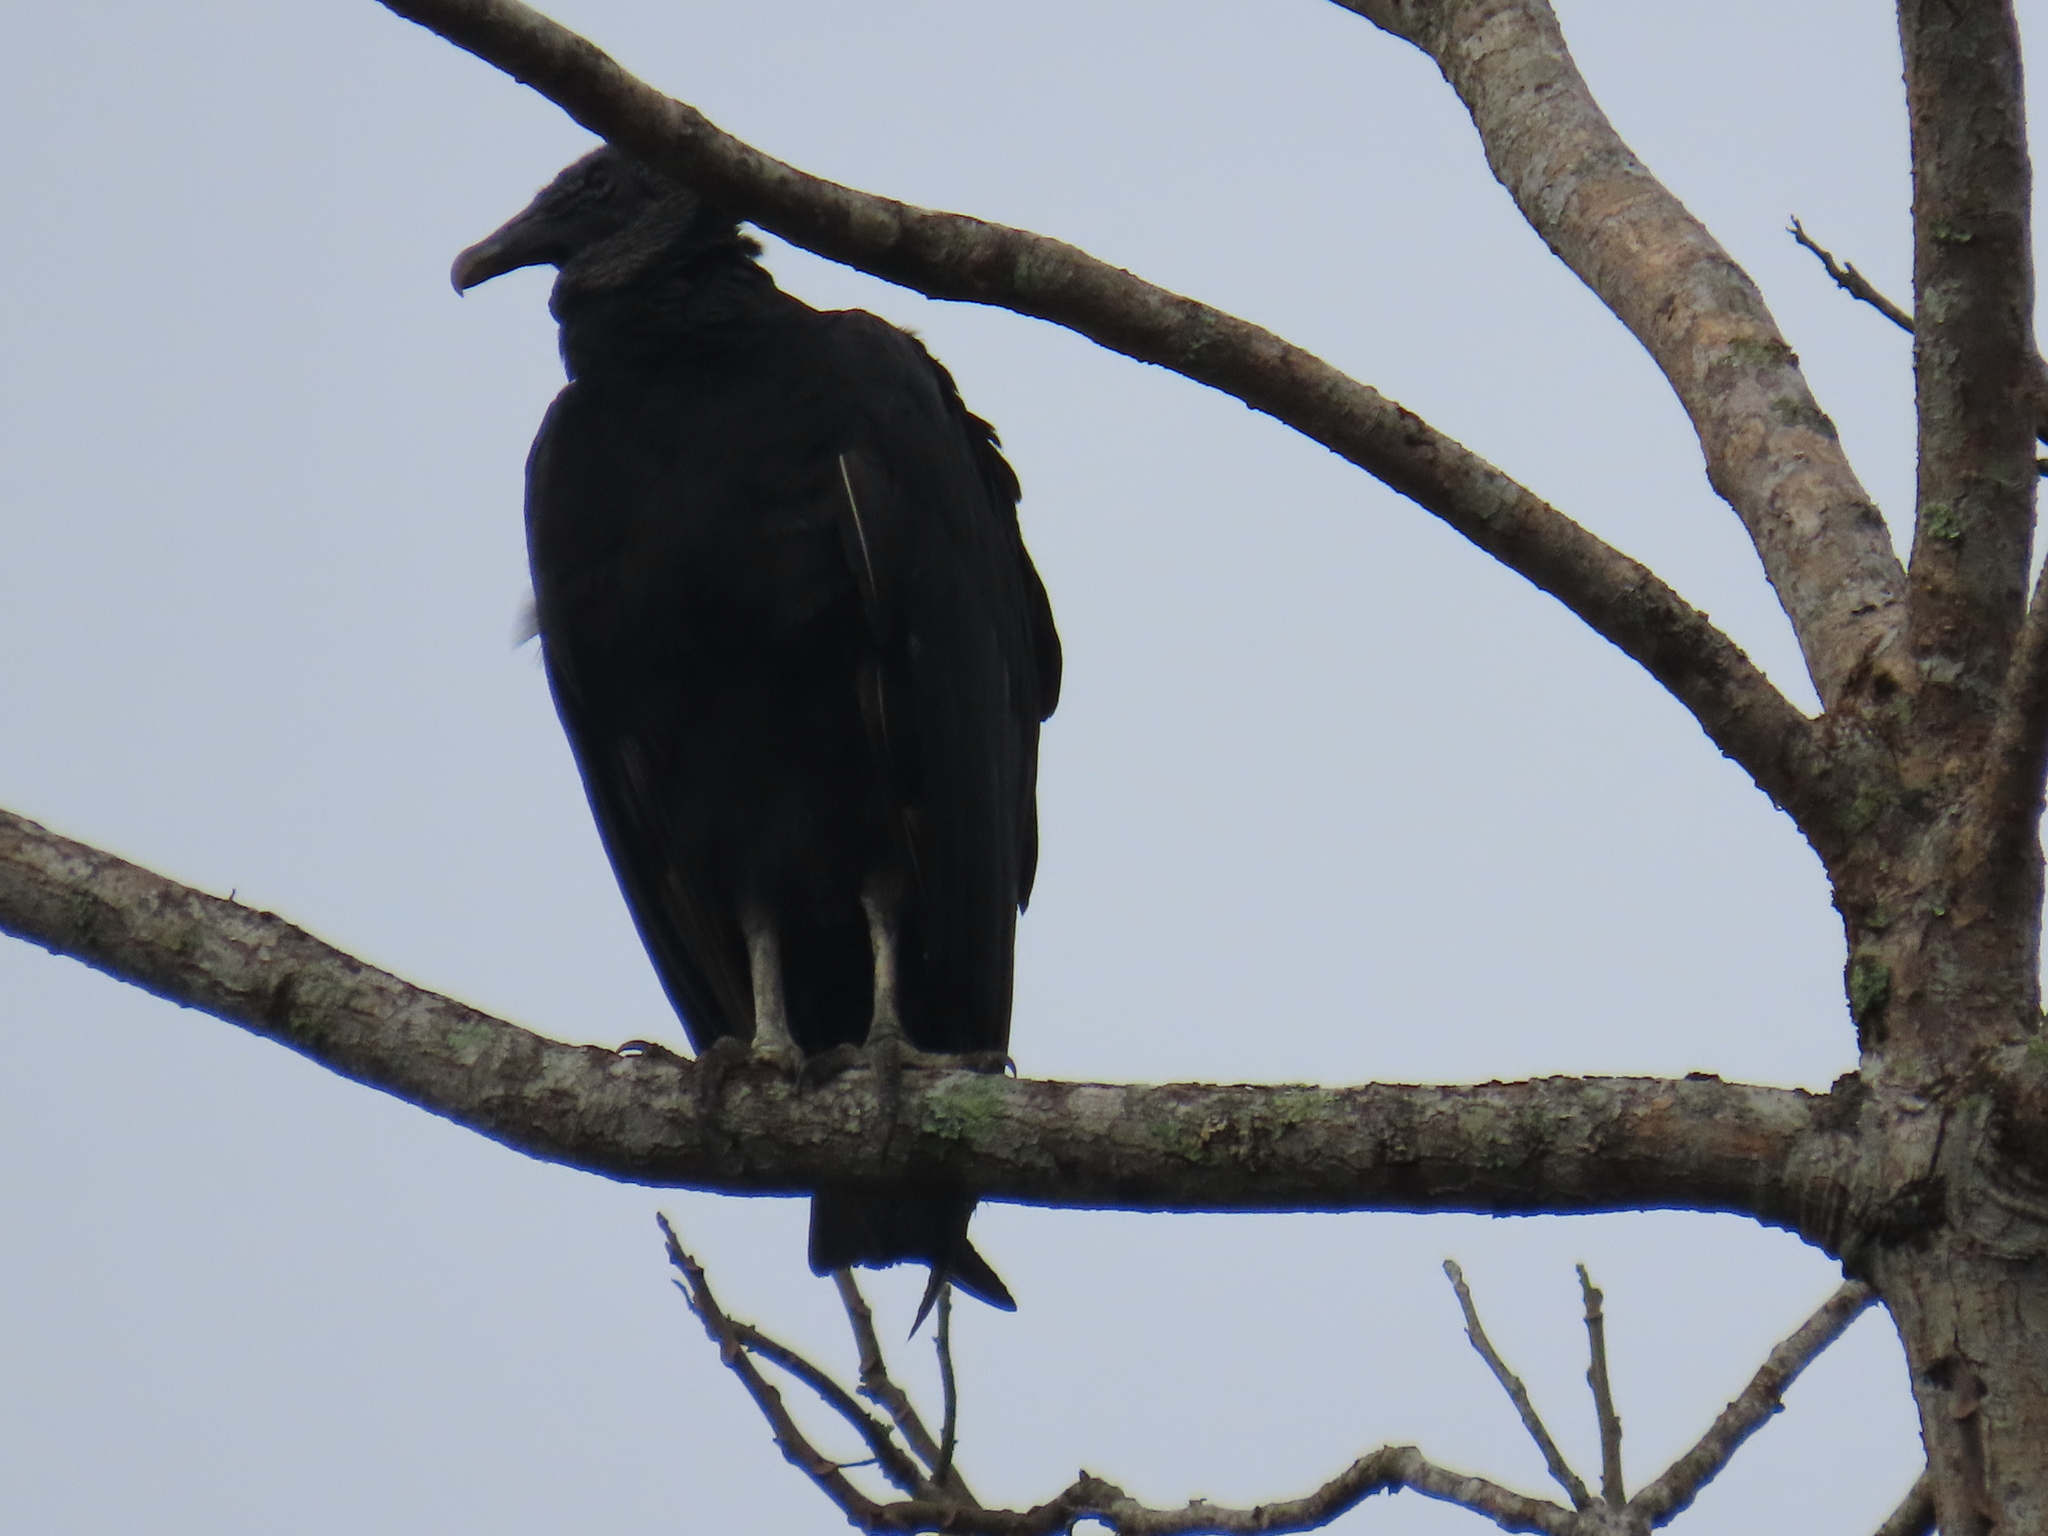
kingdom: Animalia
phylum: Chordata
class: Aves
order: Accipitriformes
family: Cathartidae
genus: Coragyps
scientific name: Coragyps atratus
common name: Black vulture
